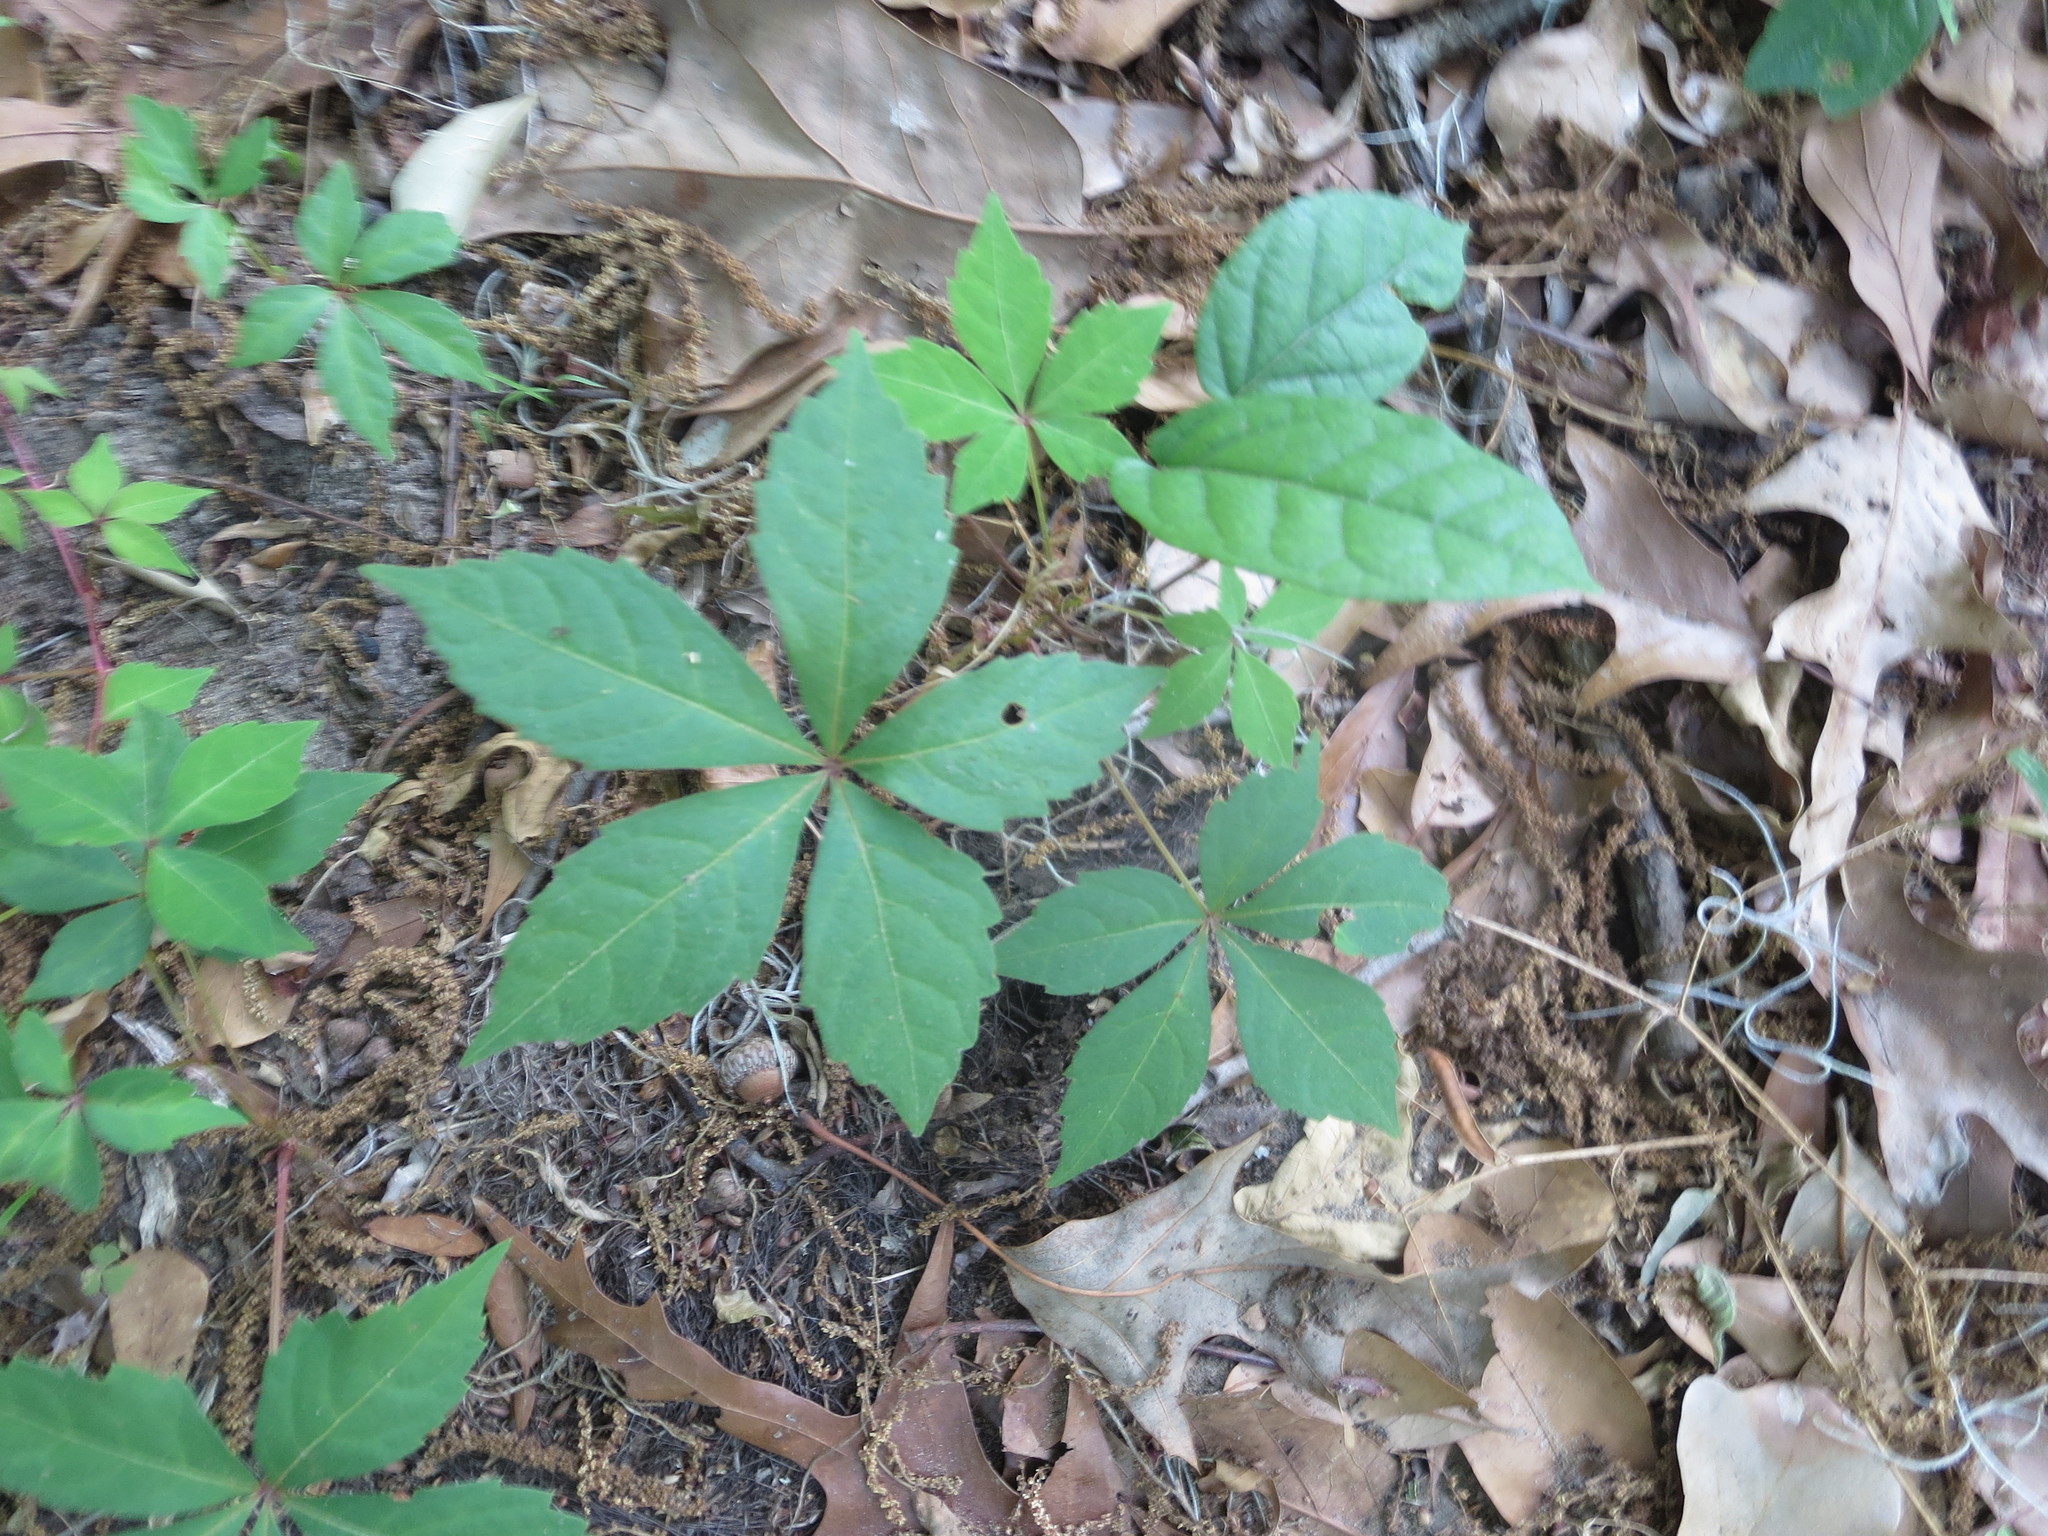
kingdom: Plantae
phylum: Tracheophyta
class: Magnoliopsida
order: Vitales
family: Vitaceae
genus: Parthenocissus
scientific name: Parthenocissus quinquefolia
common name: Virginia-creeper
